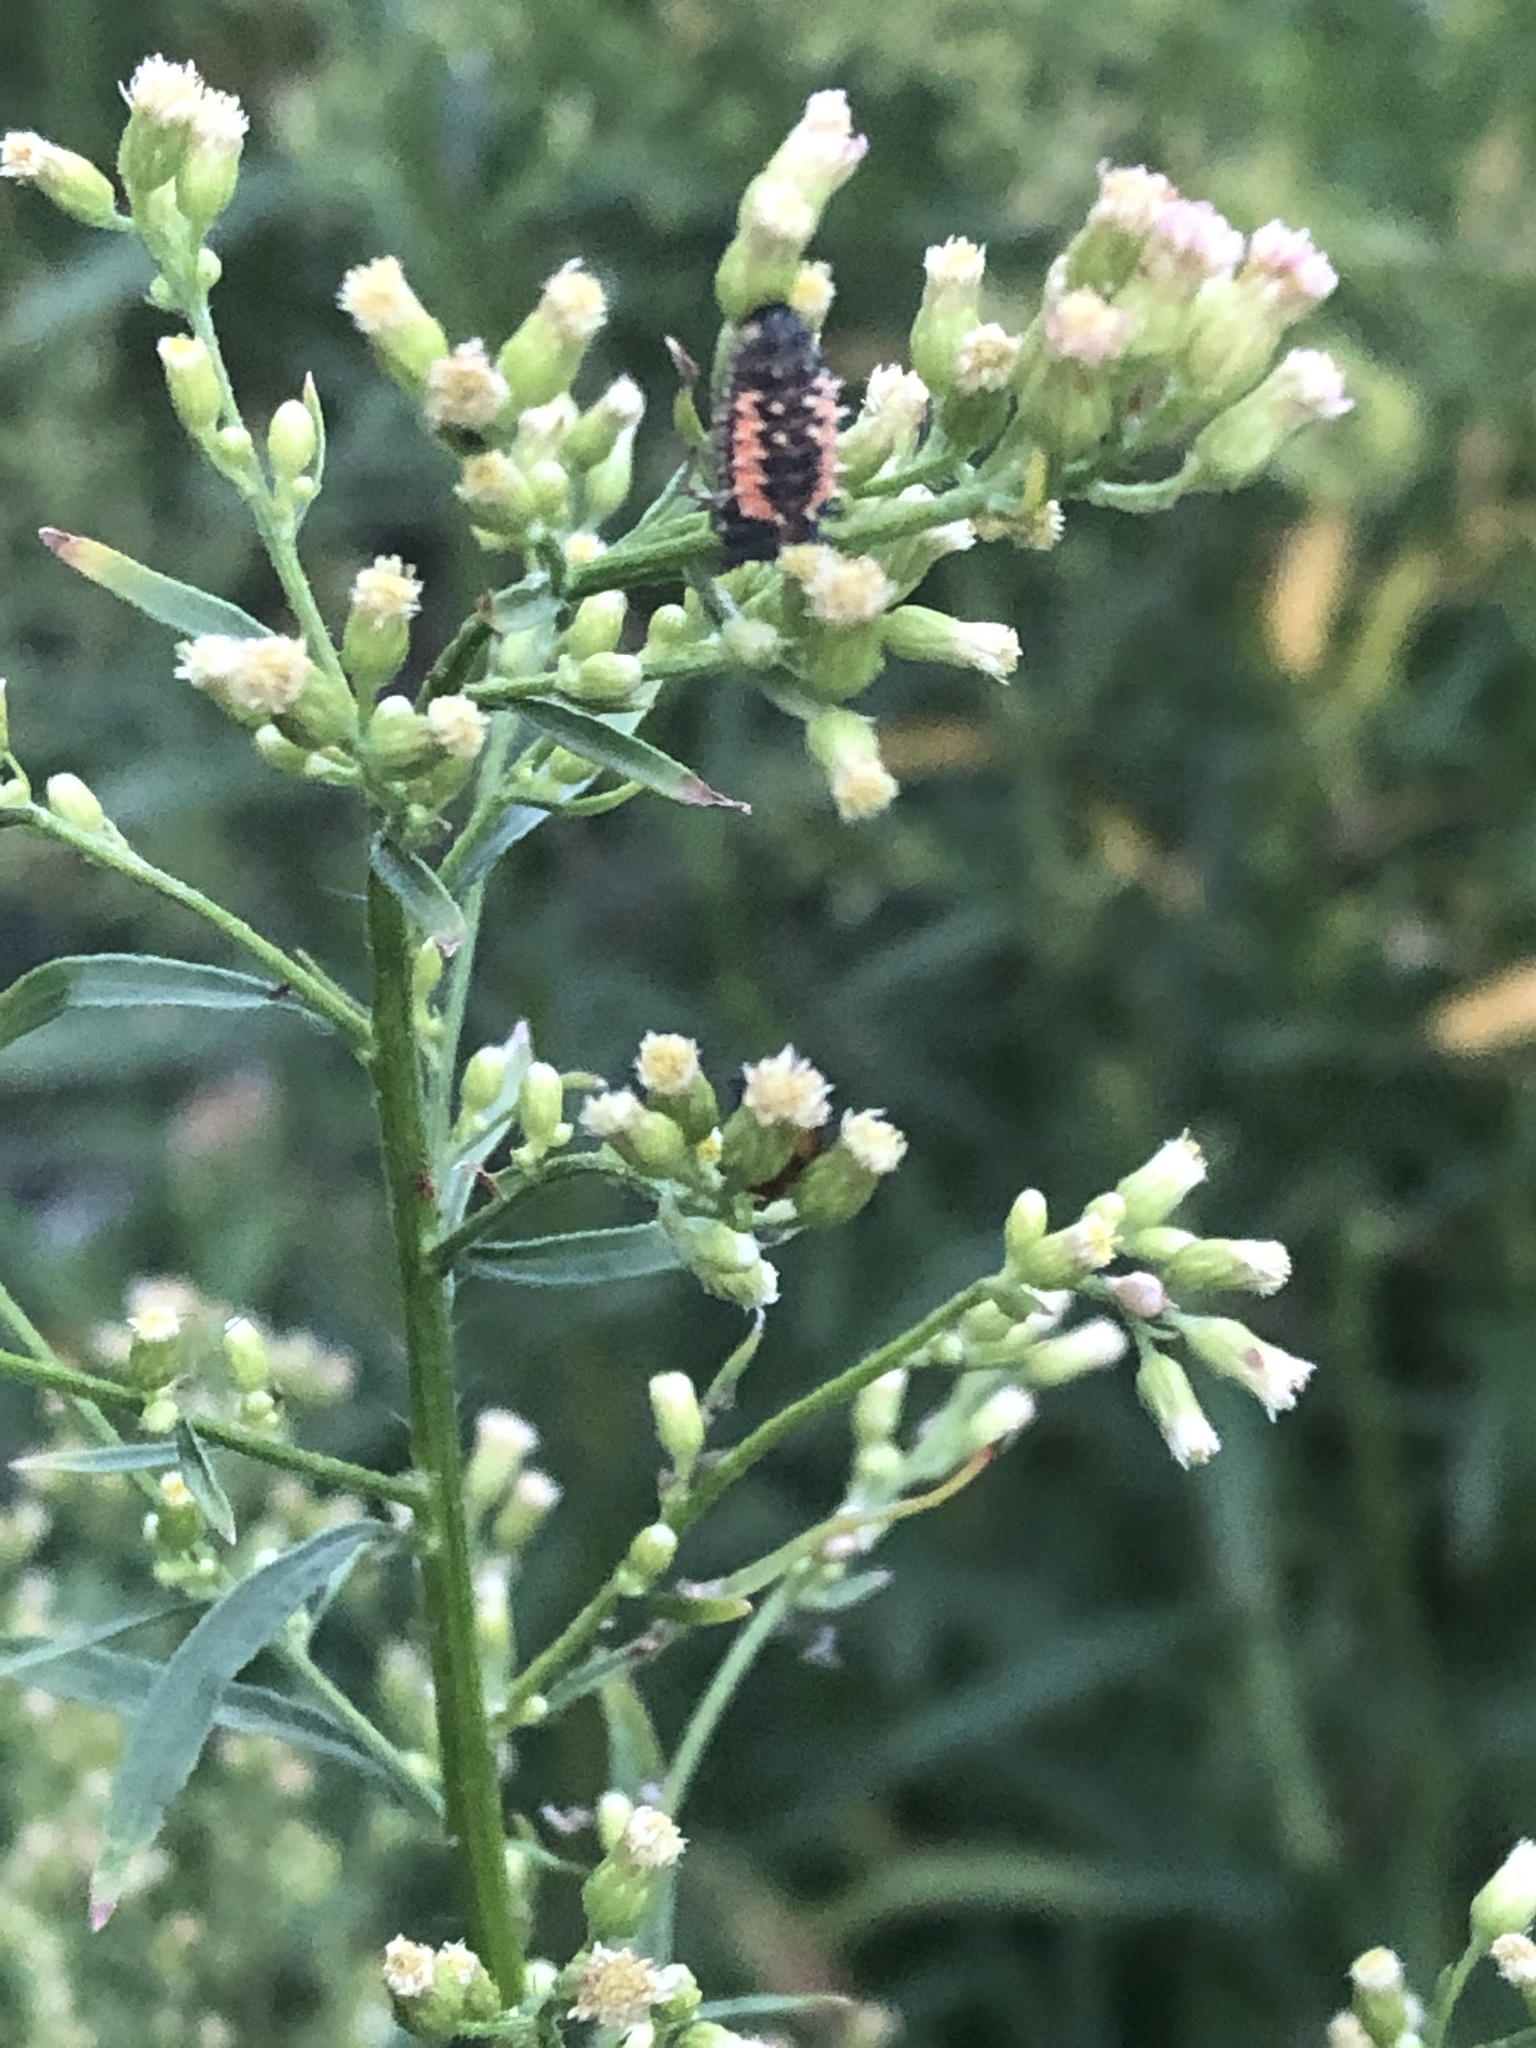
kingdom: Animalia
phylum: Arthropoda
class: Insecta
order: Coleoptera
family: Coccinellidae
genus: Harmonia
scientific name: Harmonia axyridis
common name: Harlequin ladybird
